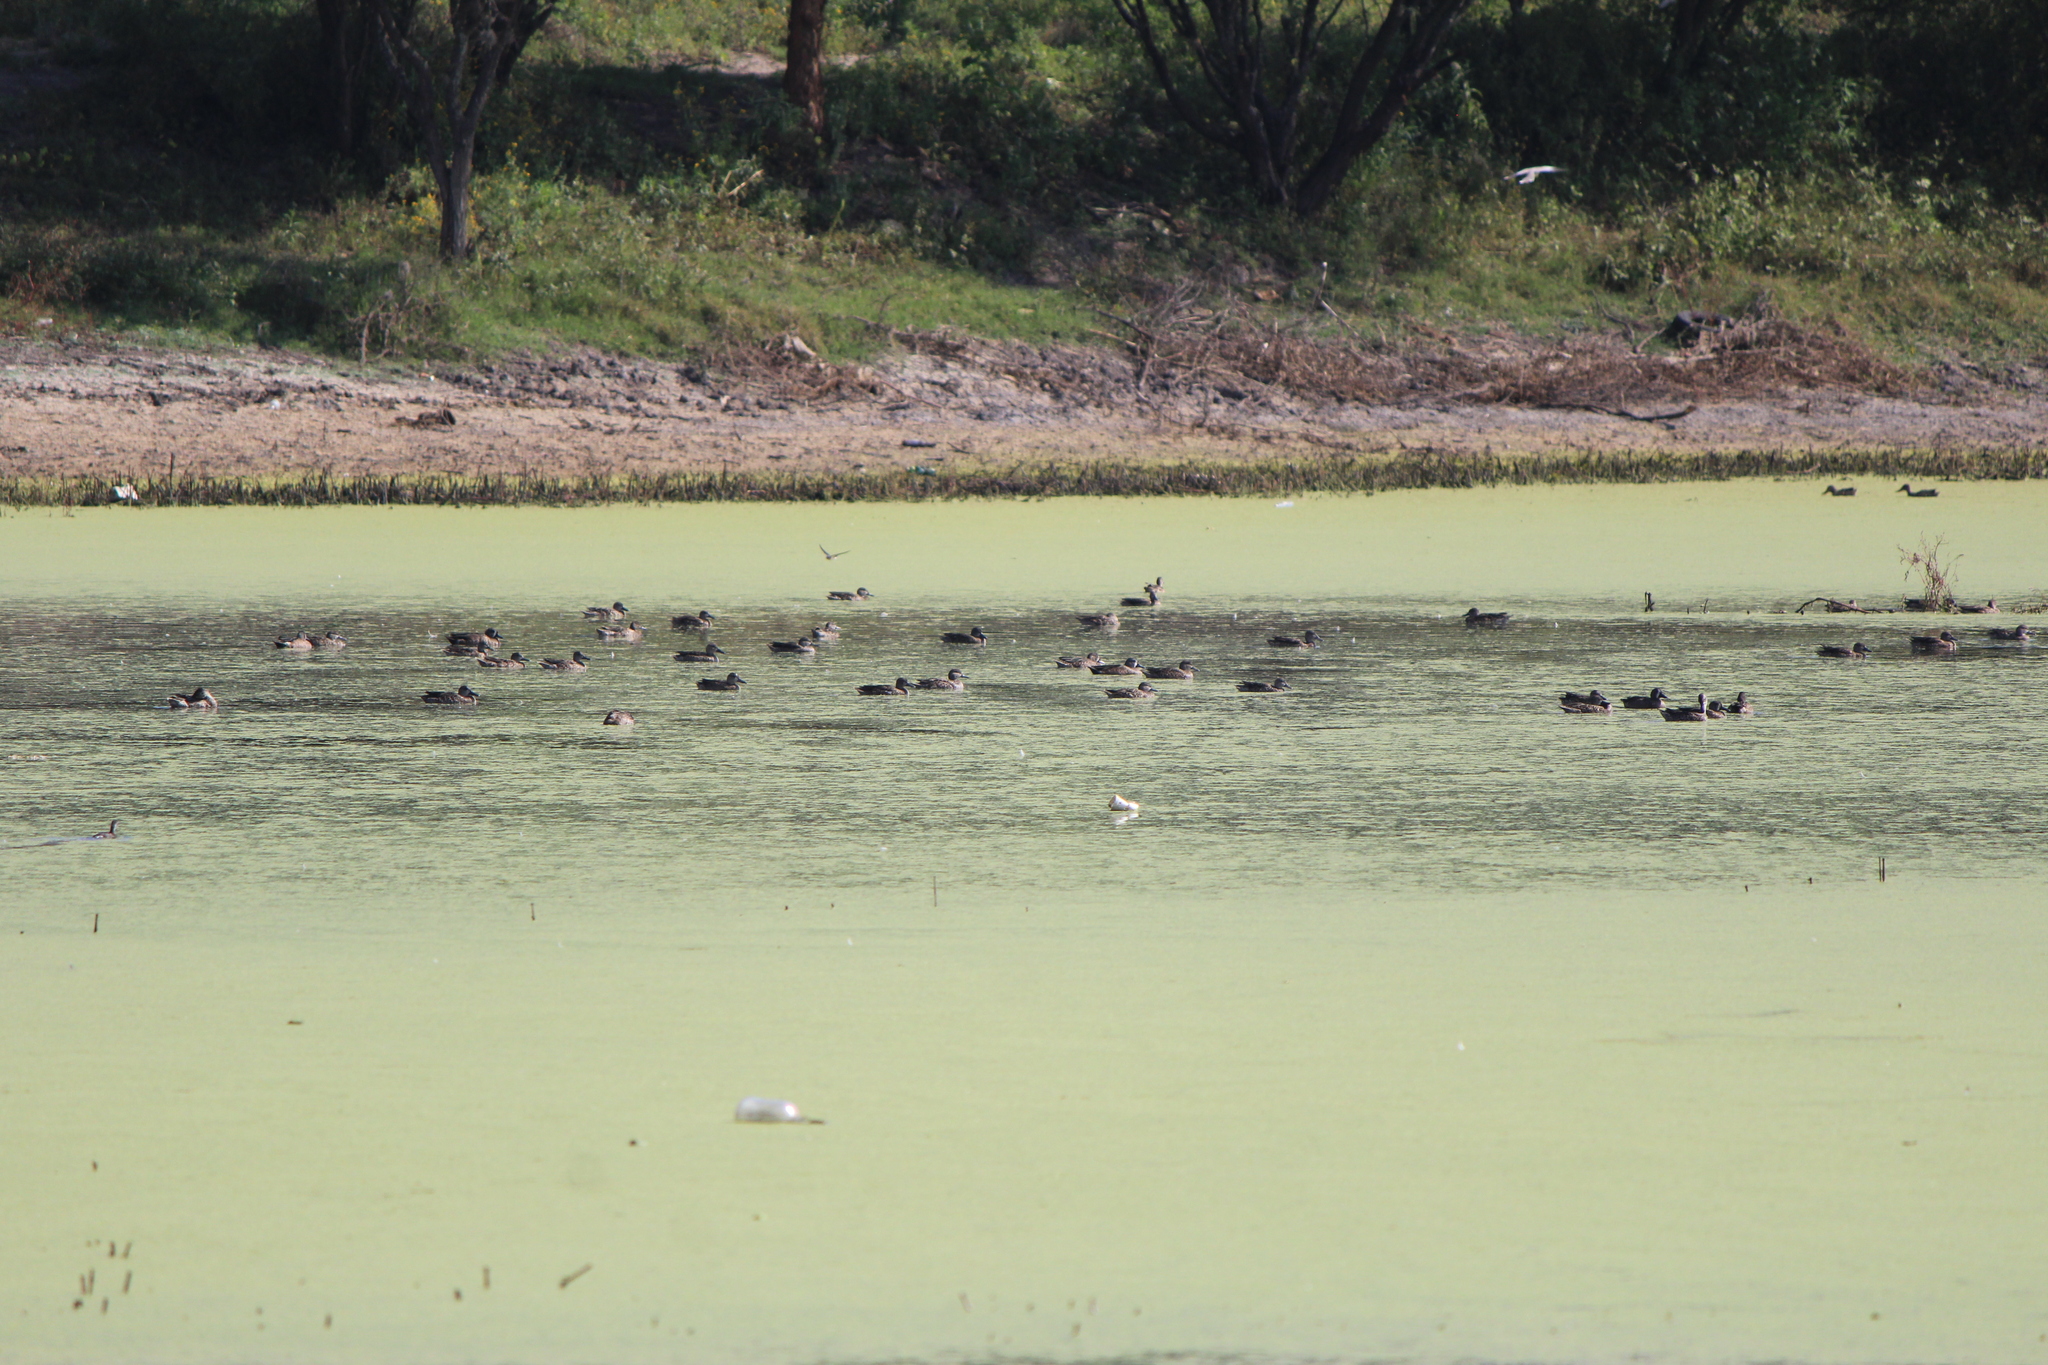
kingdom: Animalia
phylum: Chordata
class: Aves
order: Anseriformes
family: Anatidae
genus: Spatula
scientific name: Spatula discors
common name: Blue-winged teal
